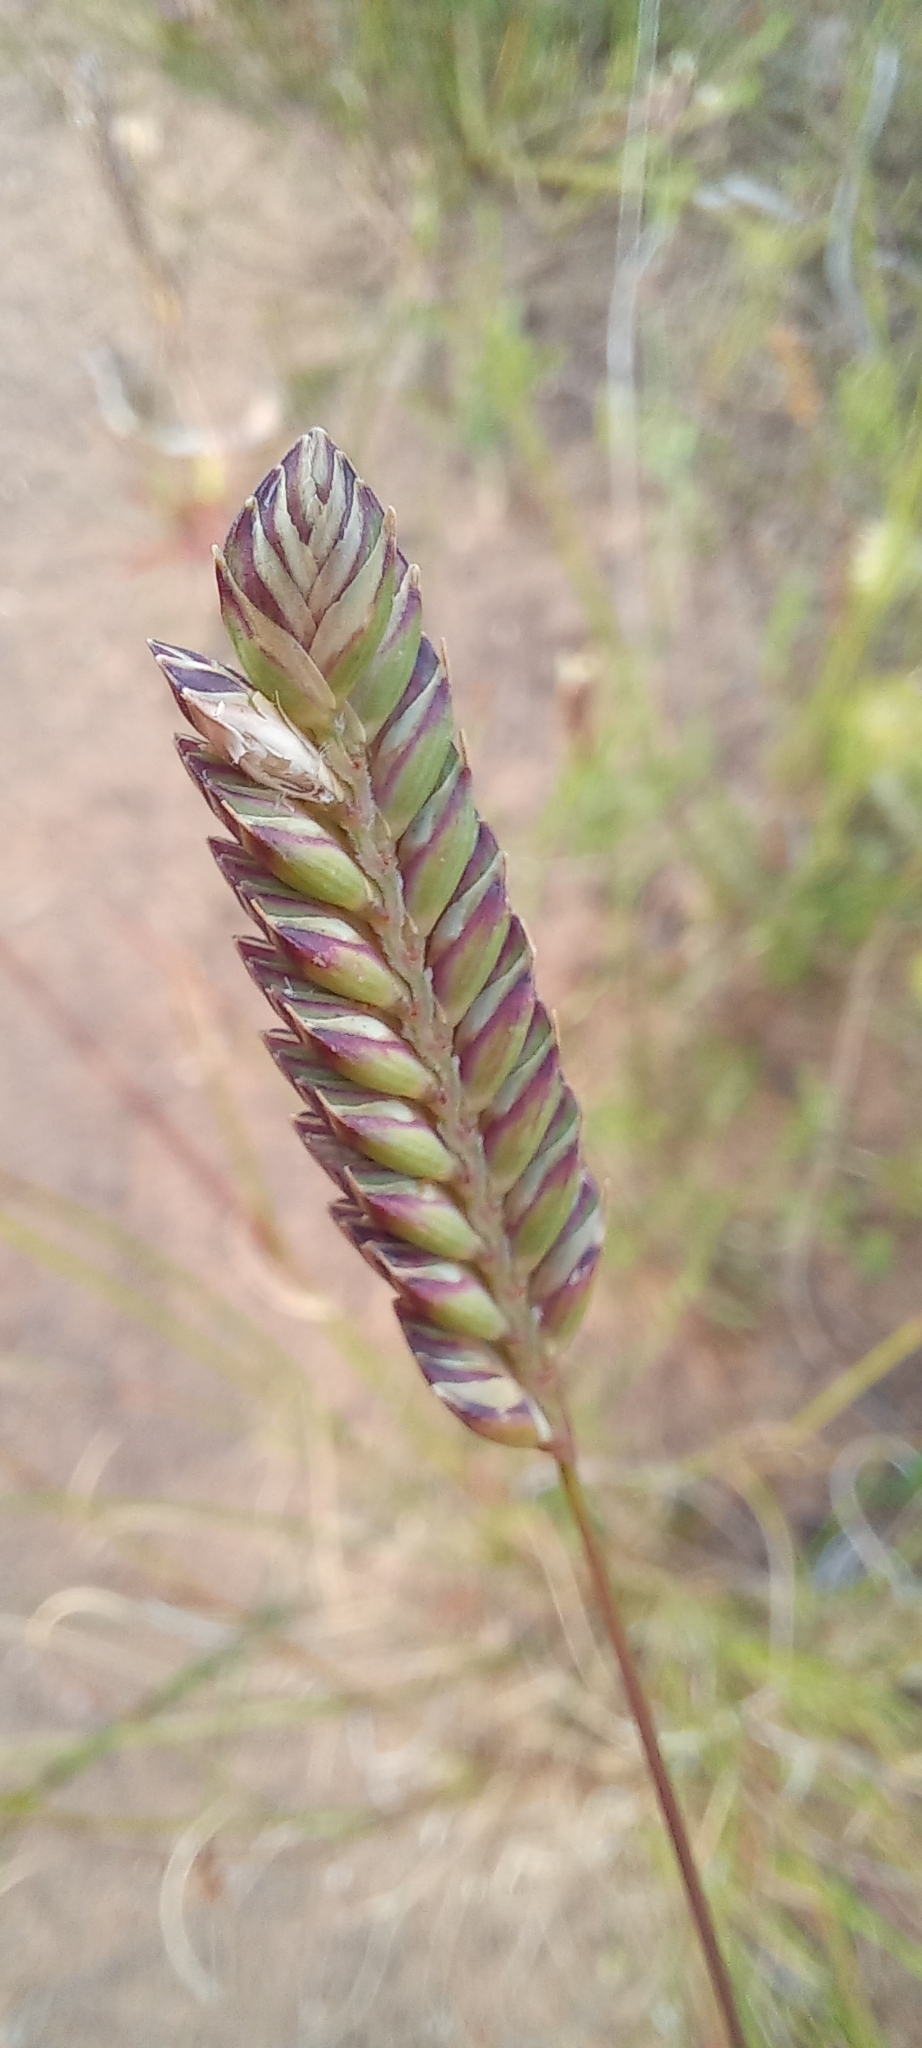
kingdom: Plantae
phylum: Tracheophyta
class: Liliopsida
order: Poales
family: Poaceae
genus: Tribolium
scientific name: Tribolium uniolae
